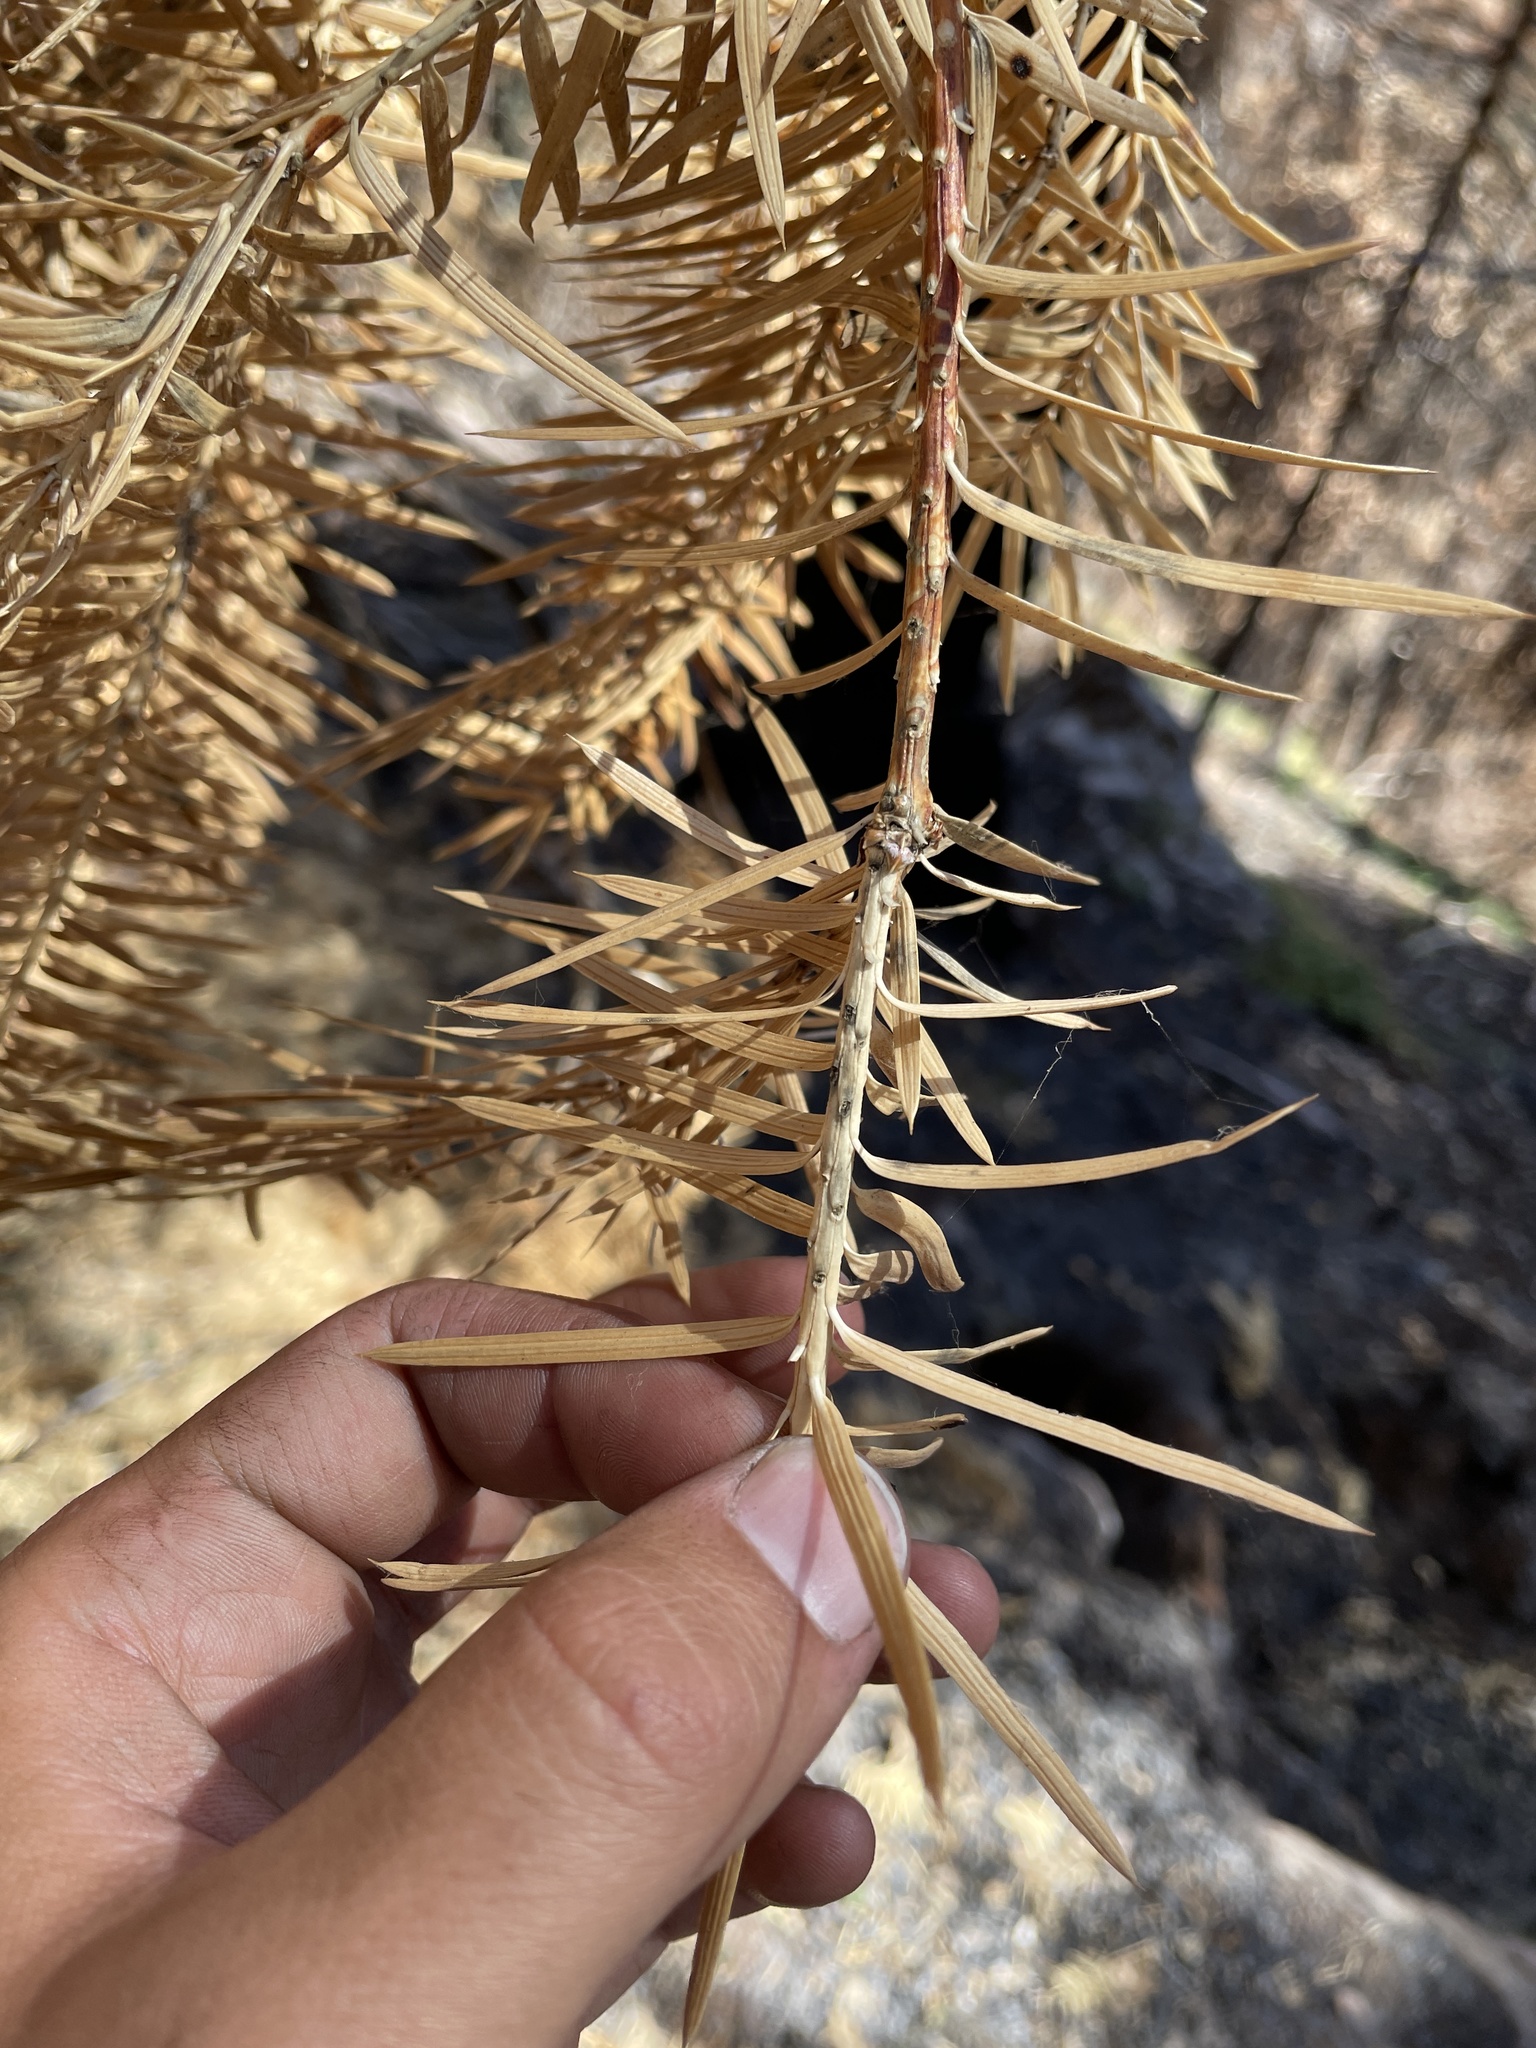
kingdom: Plantae
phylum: Tracheophyta
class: Pinopsida
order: Pinales
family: Taxaceae
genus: Torreya
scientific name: Torreya californica
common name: California torreya
